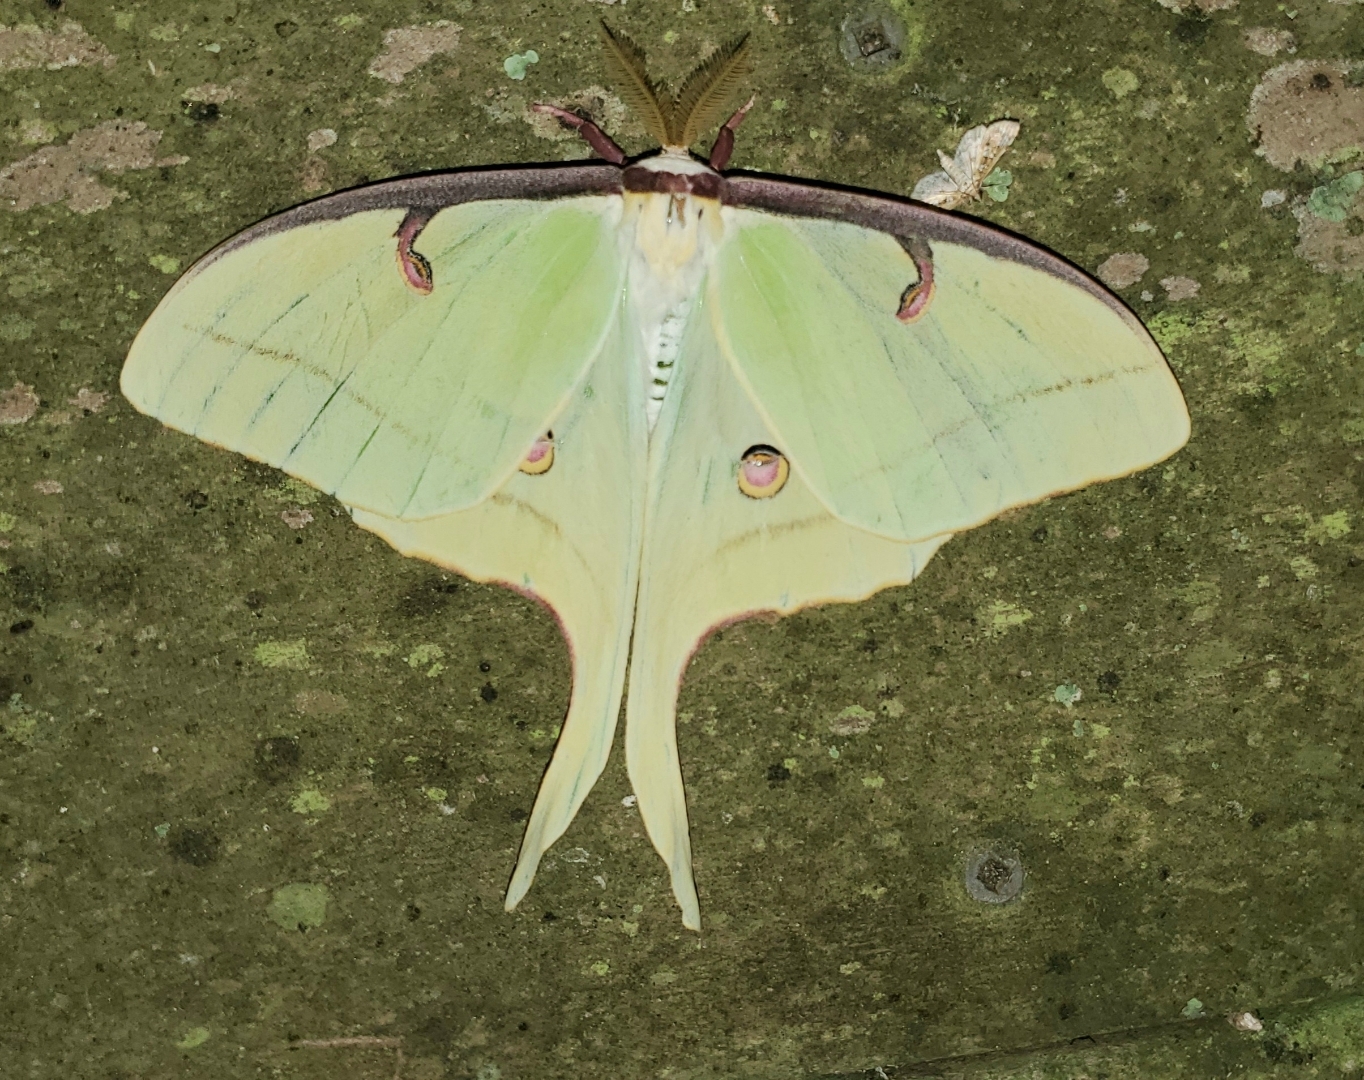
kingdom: Animalia
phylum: Arthropoda
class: Insecta
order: Lepidoptera
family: Saturniidae
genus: Actias
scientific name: Actias luna
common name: Luna moth
